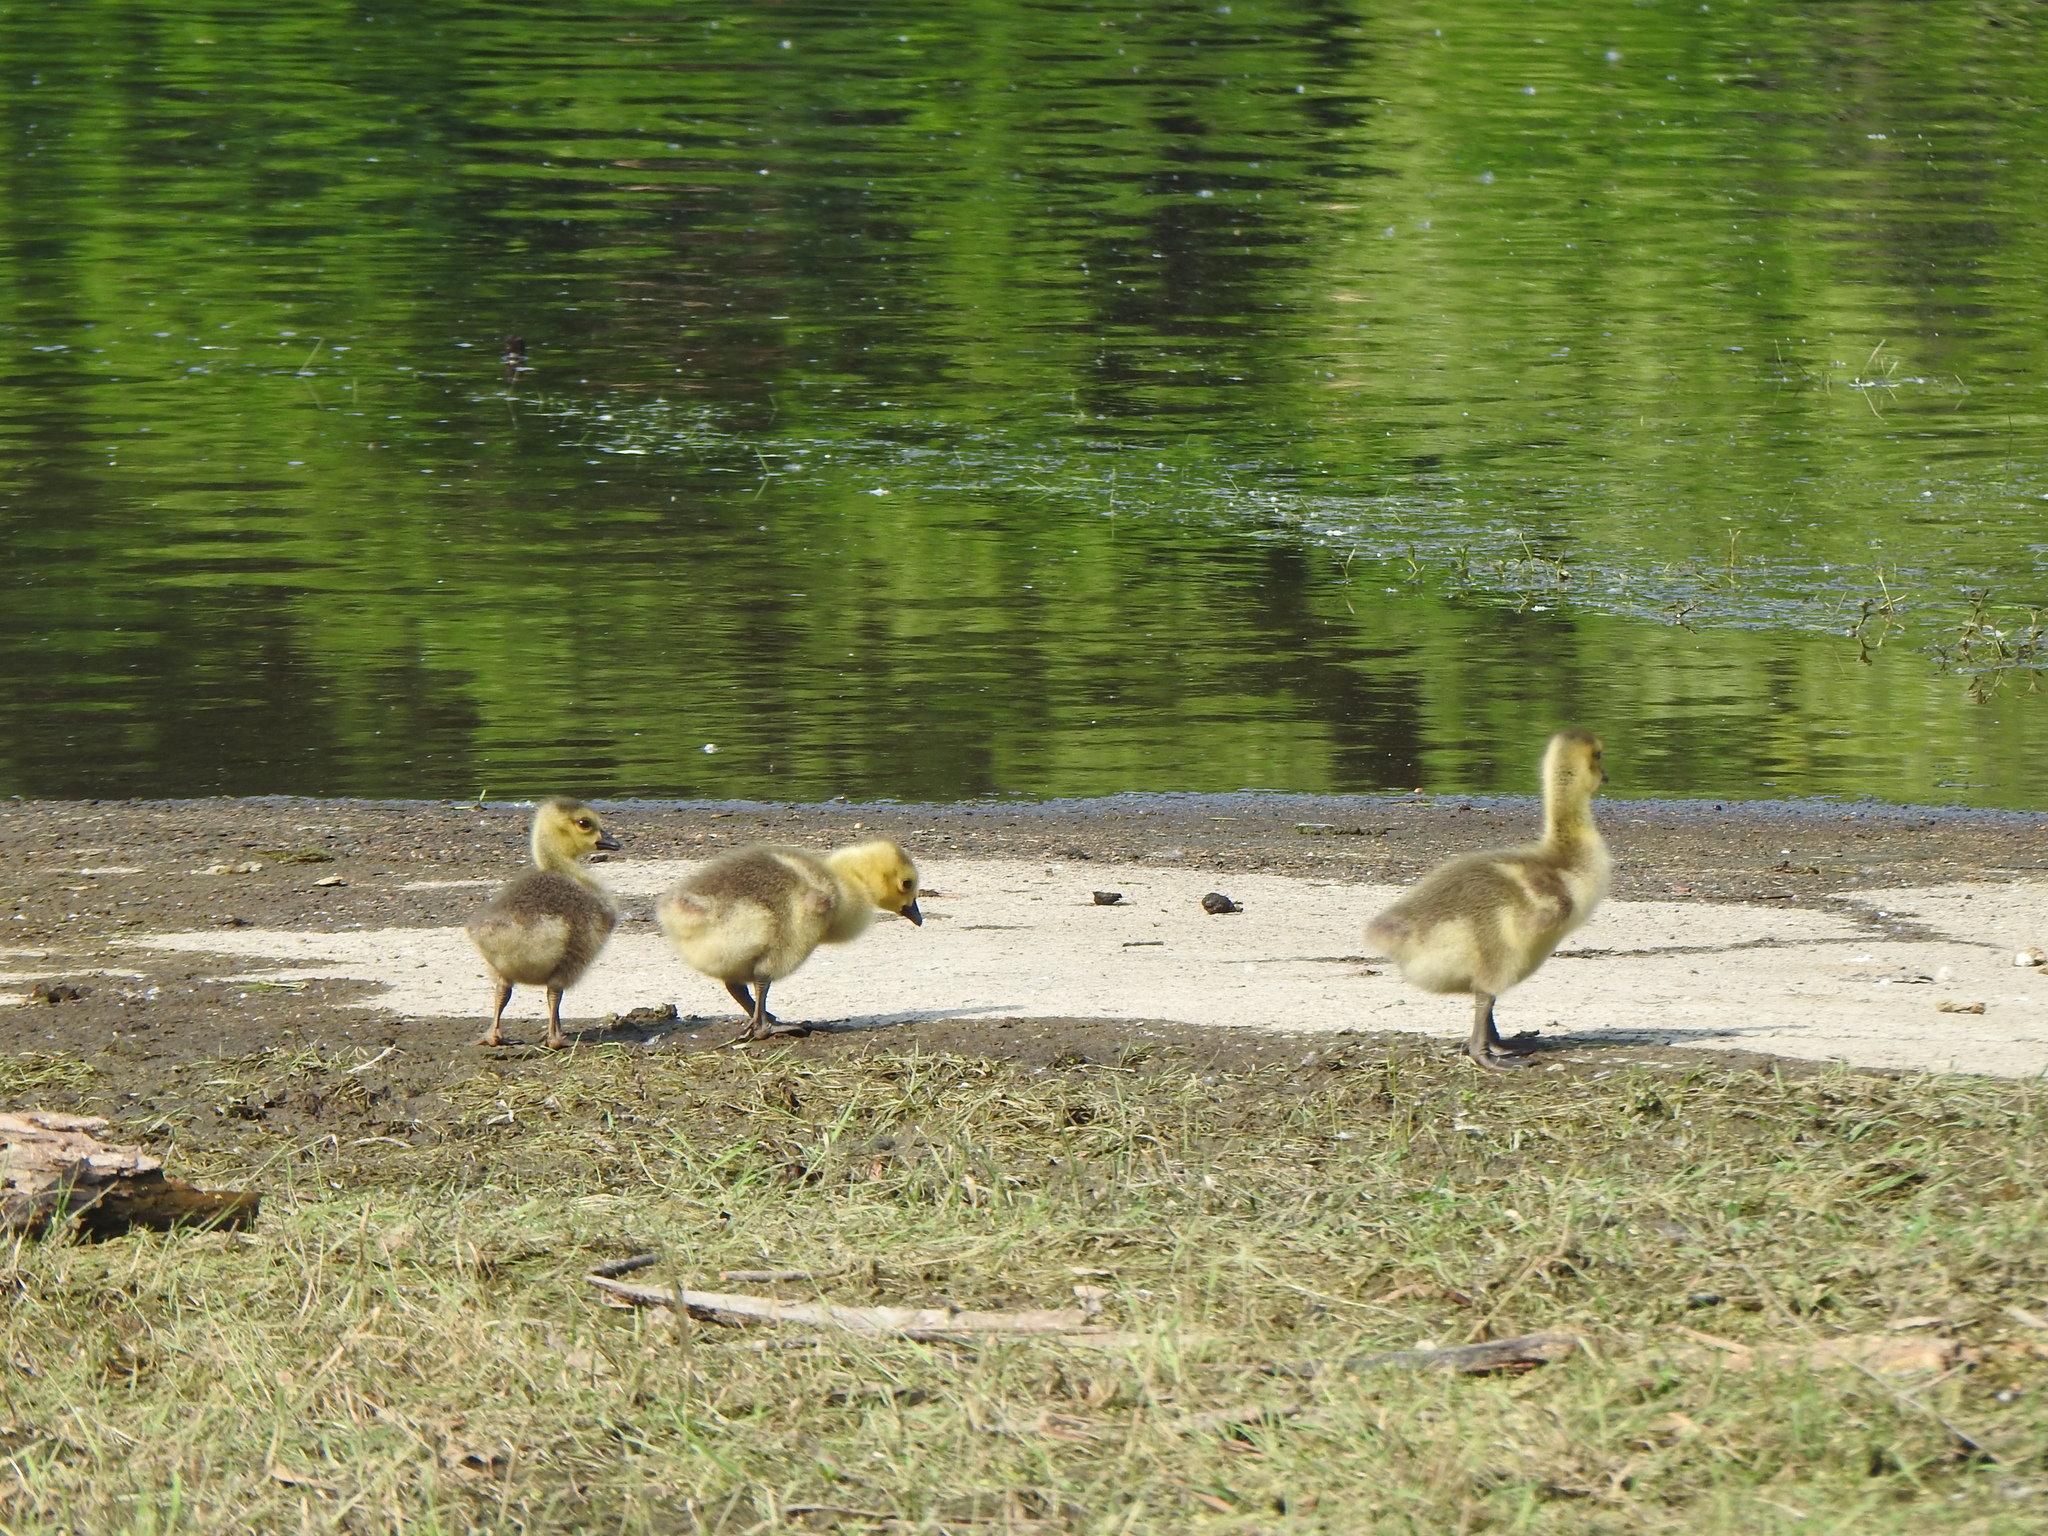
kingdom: Animalia
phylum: Chordata
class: Aves
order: Anseriformes
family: Anatidae
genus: Branta
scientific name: Branta canadensis
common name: Canada goose
